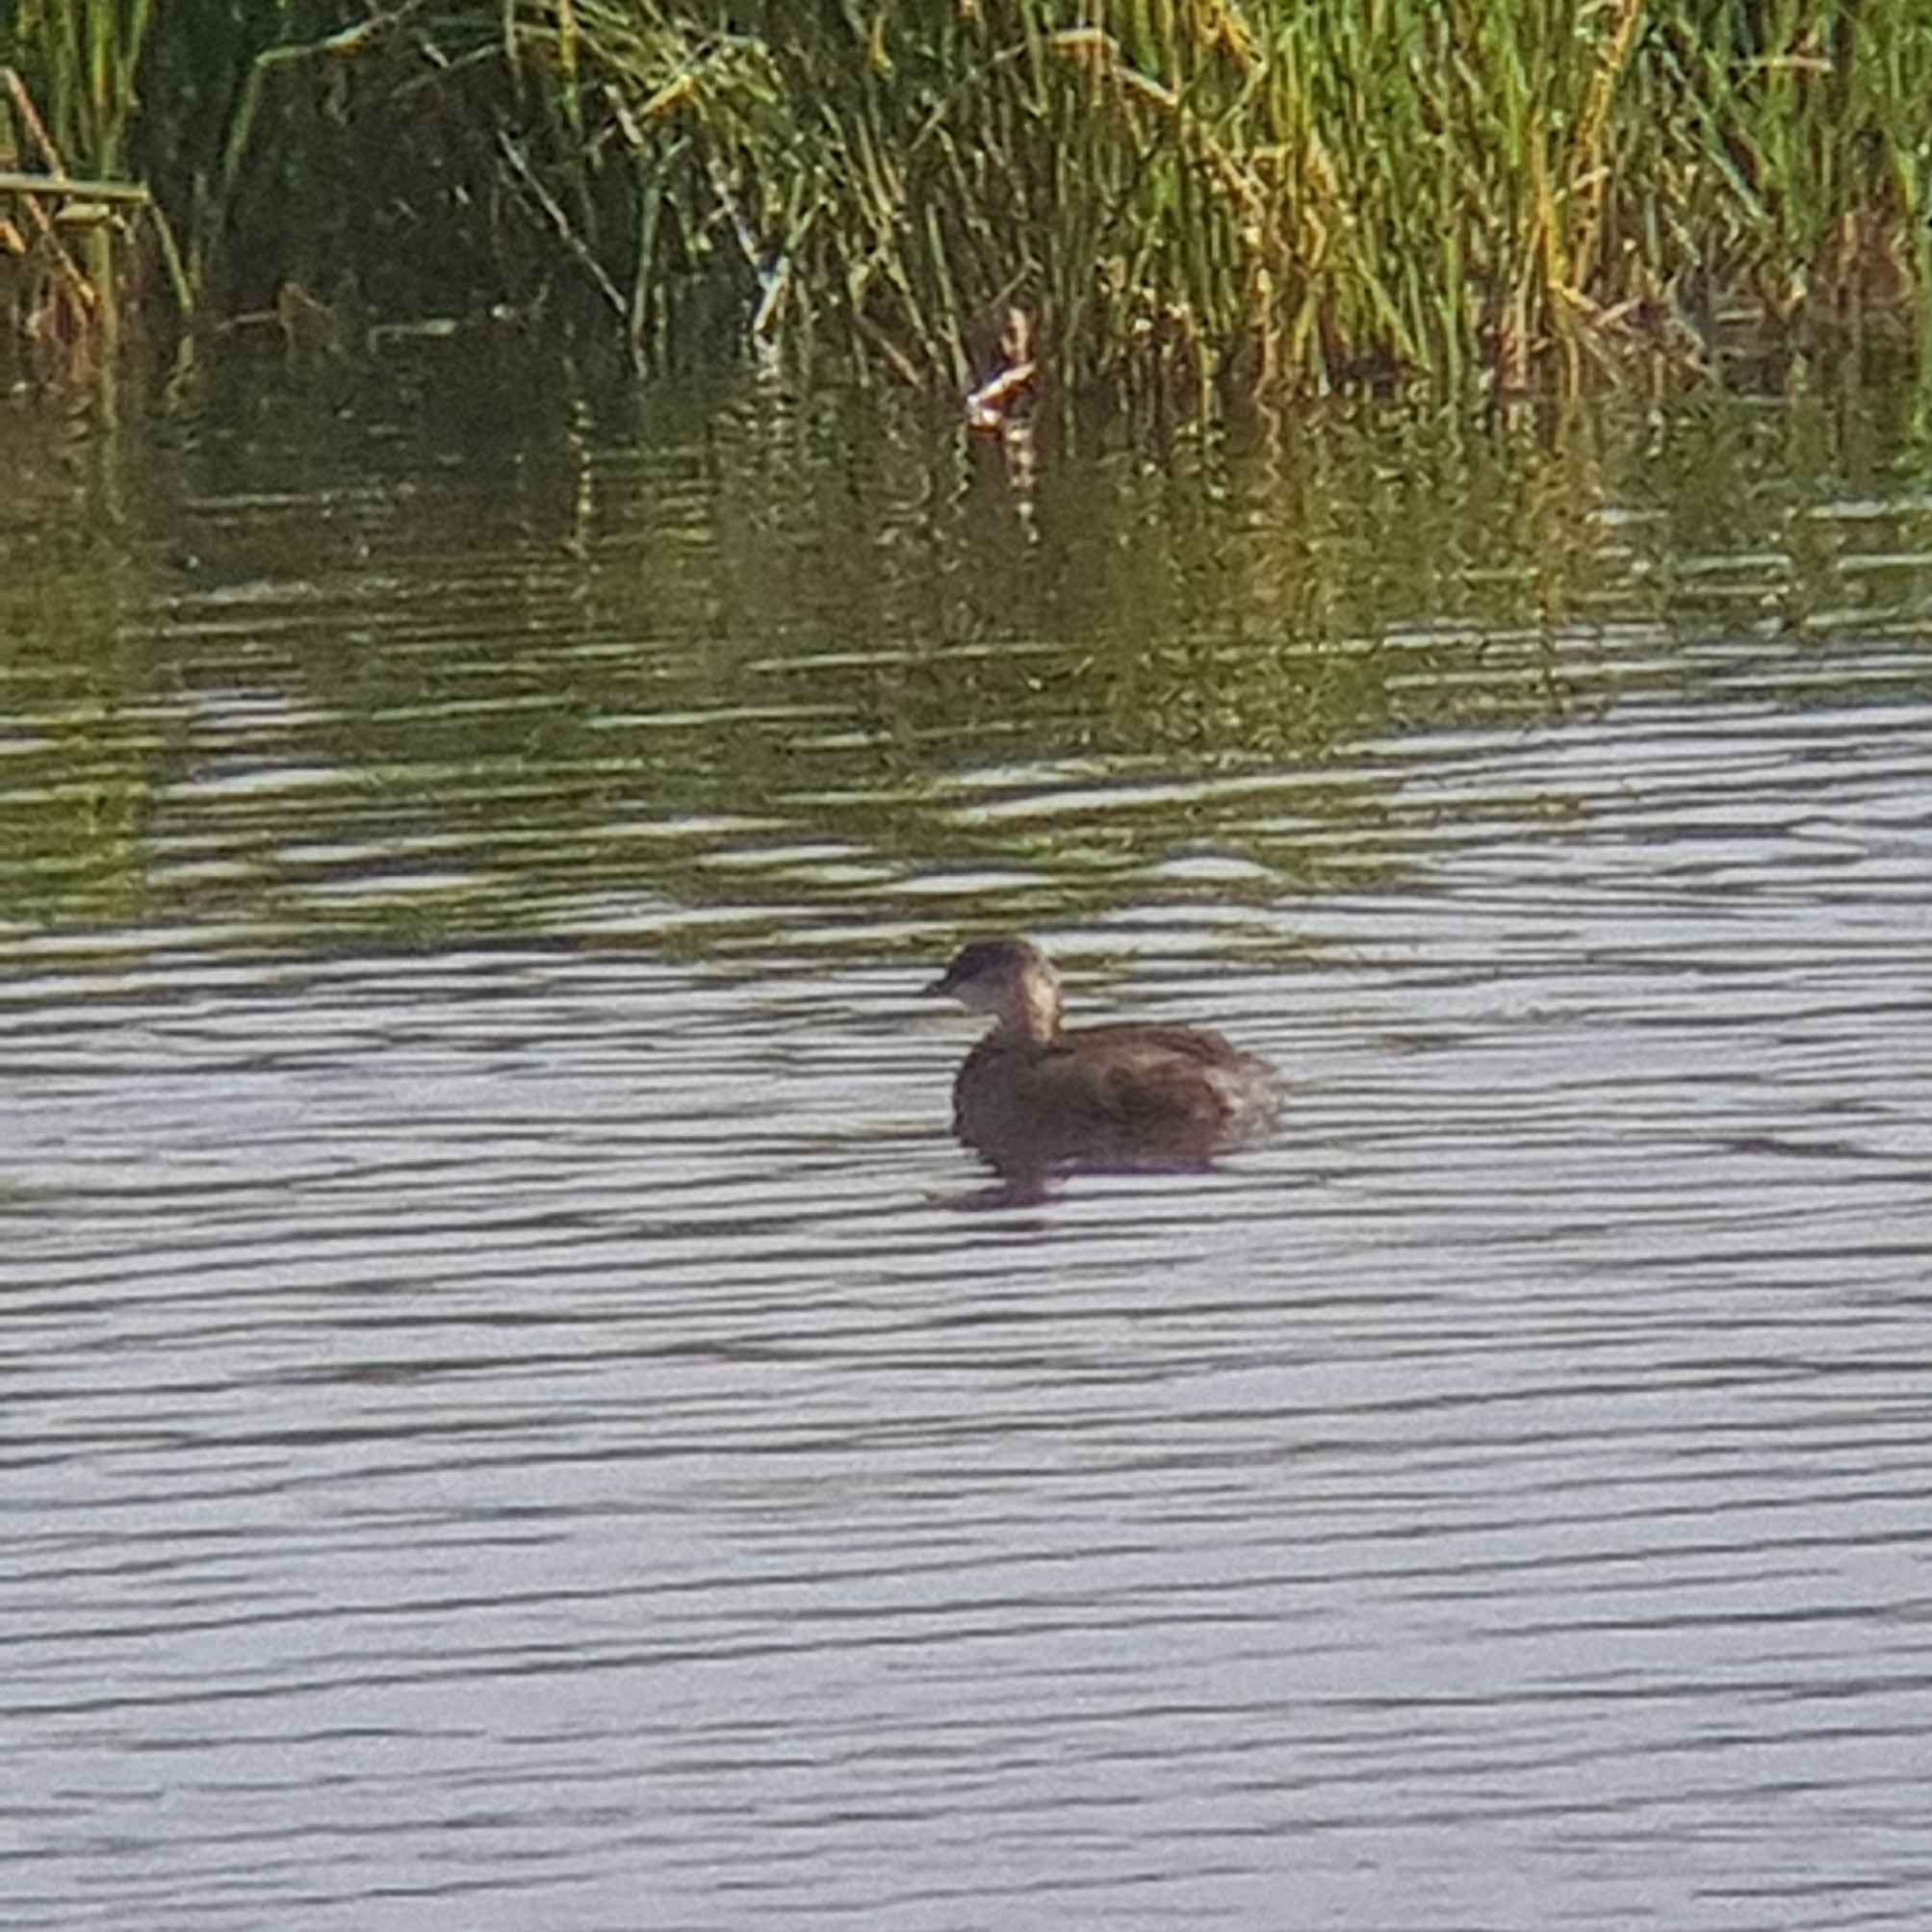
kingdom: Animalia
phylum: Chordata
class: Aves
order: Podicipediformes
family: Podicipedidae
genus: Tachybaptus
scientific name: Tachybaptus ruficollis
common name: Little grebe
